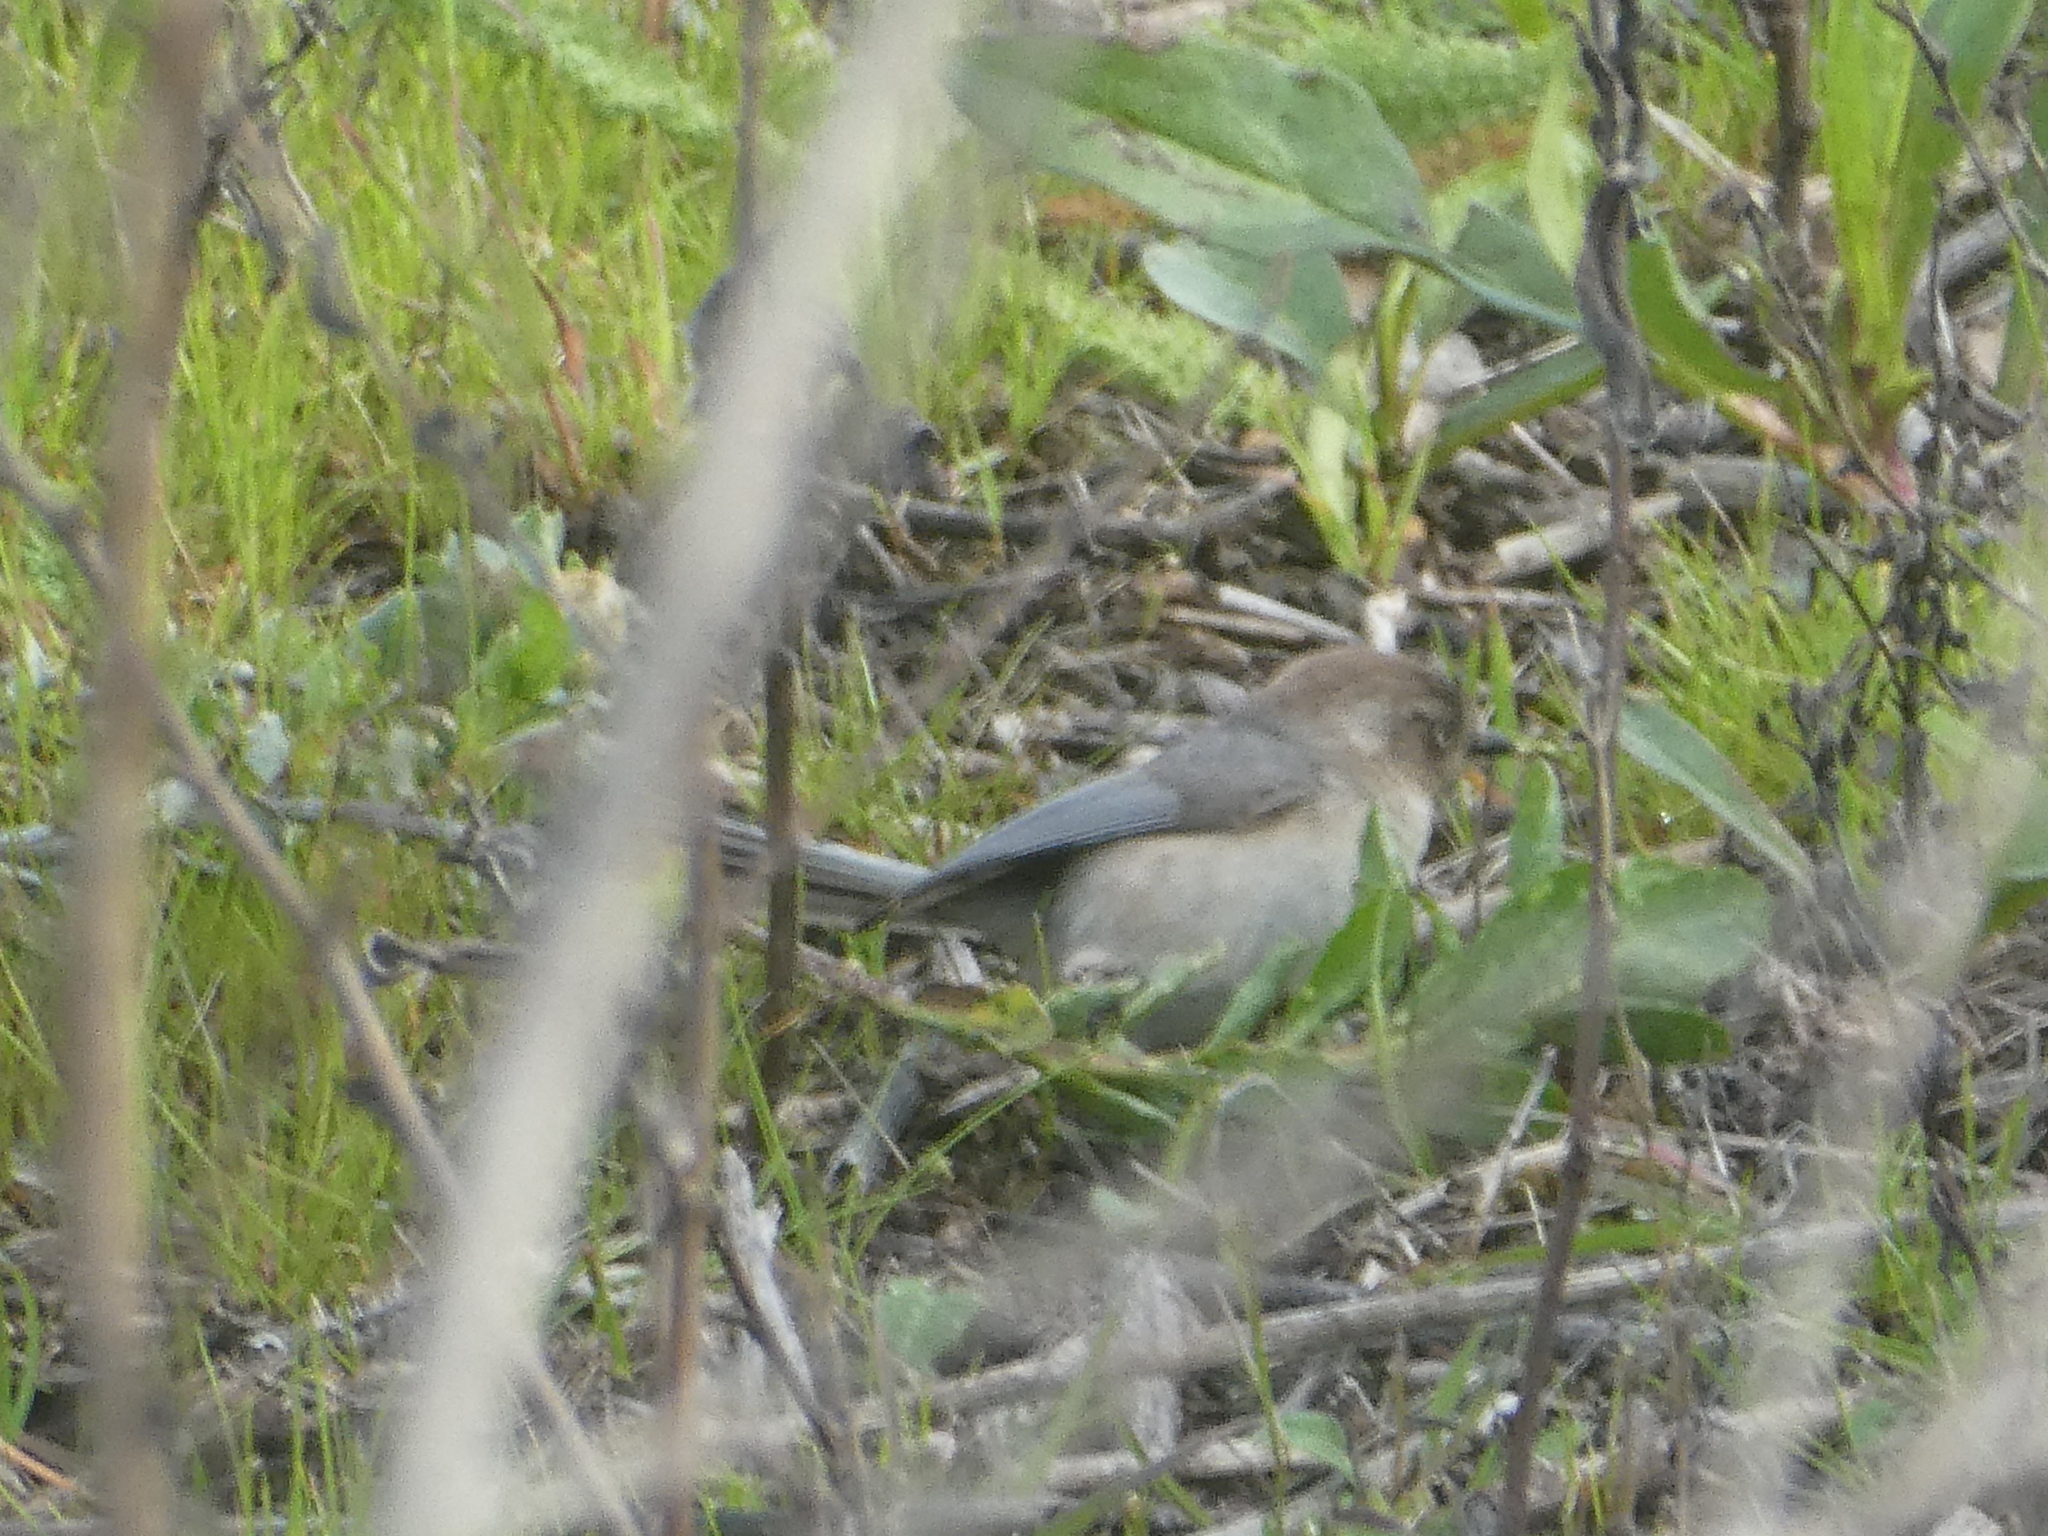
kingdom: Animalia
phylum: Chordata
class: Aves
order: Passeriformes
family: Aegithalidae
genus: Psaltriparus
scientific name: Psaltriparus minimus
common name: American bushtit
